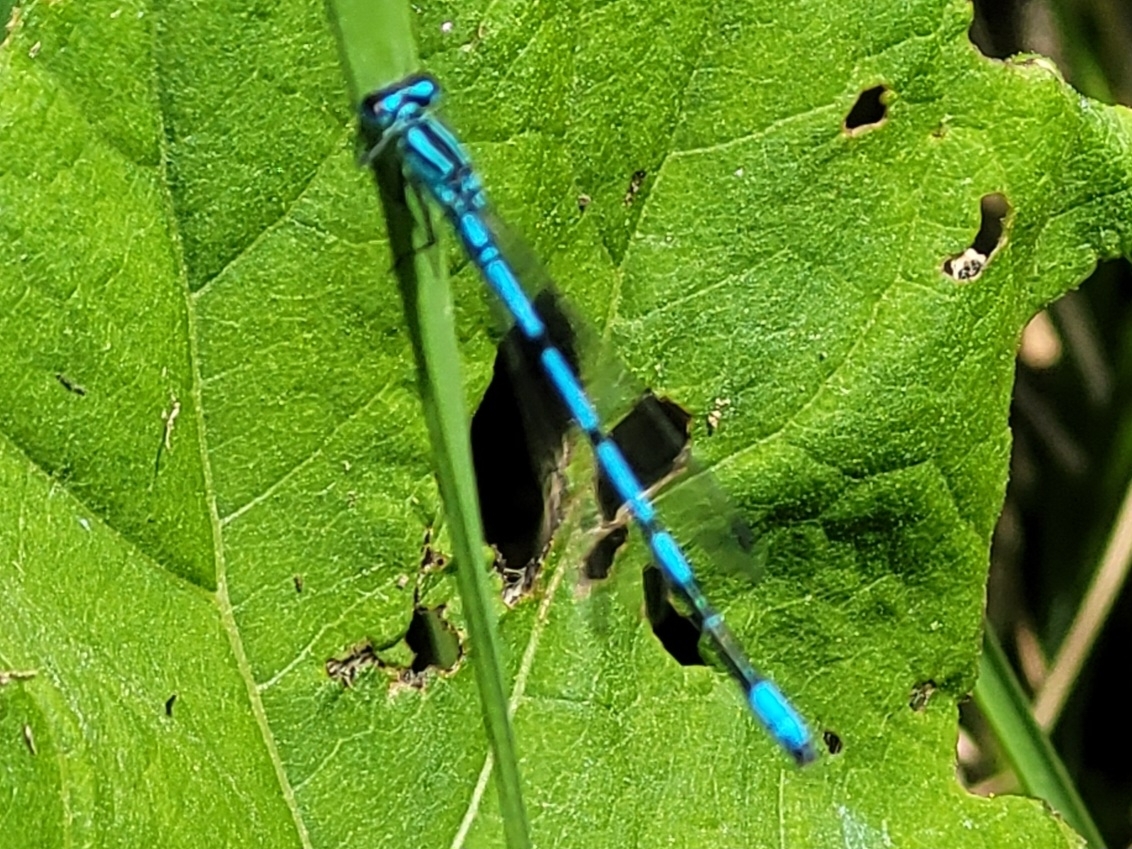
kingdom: Animalia
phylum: Arthropoda
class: Insecta
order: Odonata
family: Coenagrionidae
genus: Coenagrion
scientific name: Coenagrion puella
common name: Azure damselfly
